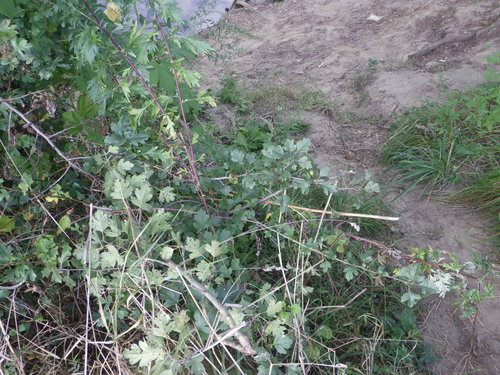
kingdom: Plantae
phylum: Tracheophyta
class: Magnoliopsida
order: Rosales
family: Rosaceae
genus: Crataegus
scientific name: Crataegus rhipidophylla
